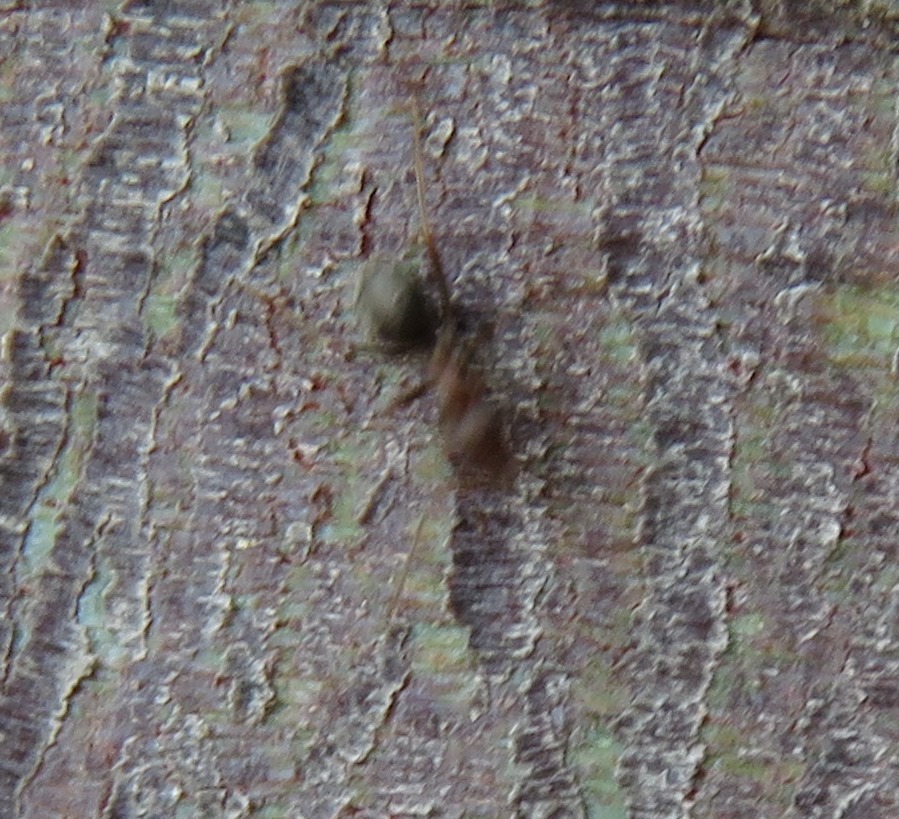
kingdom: Animalia
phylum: Arthropoda
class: Insecta
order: Hymenoptera
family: Formicidae
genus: Anoplolepis
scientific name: Anoplolepis steingroeveri
